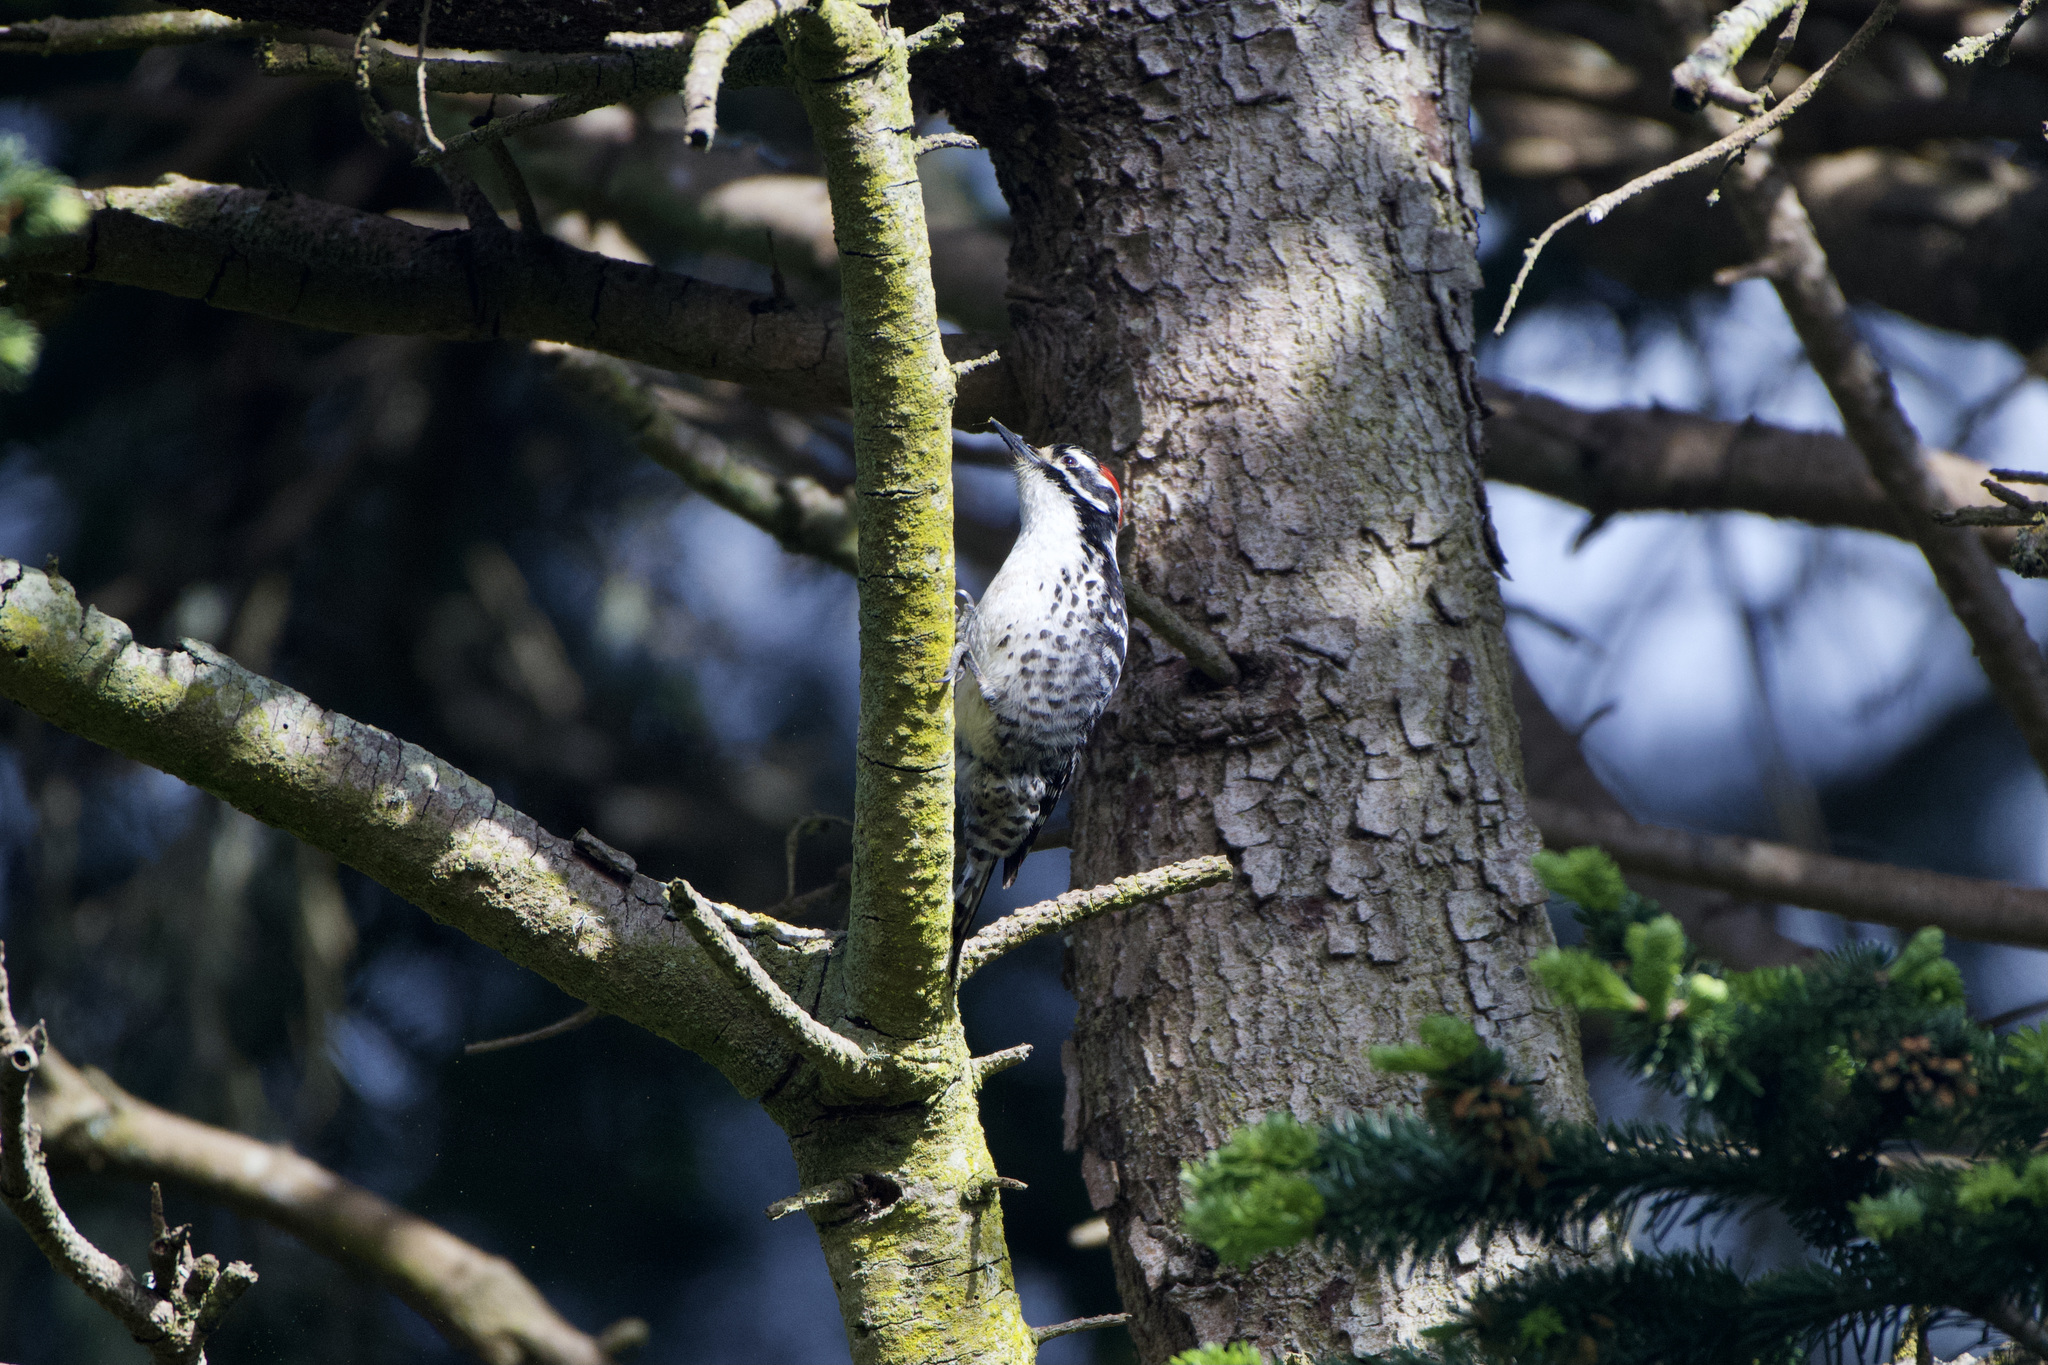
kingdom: Animalia
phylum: Chordata
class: Aves
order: Piciformes
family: Picidae
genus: Dryobates
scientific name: Dryobates nuttallii
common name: Nuttall's woodpecker
